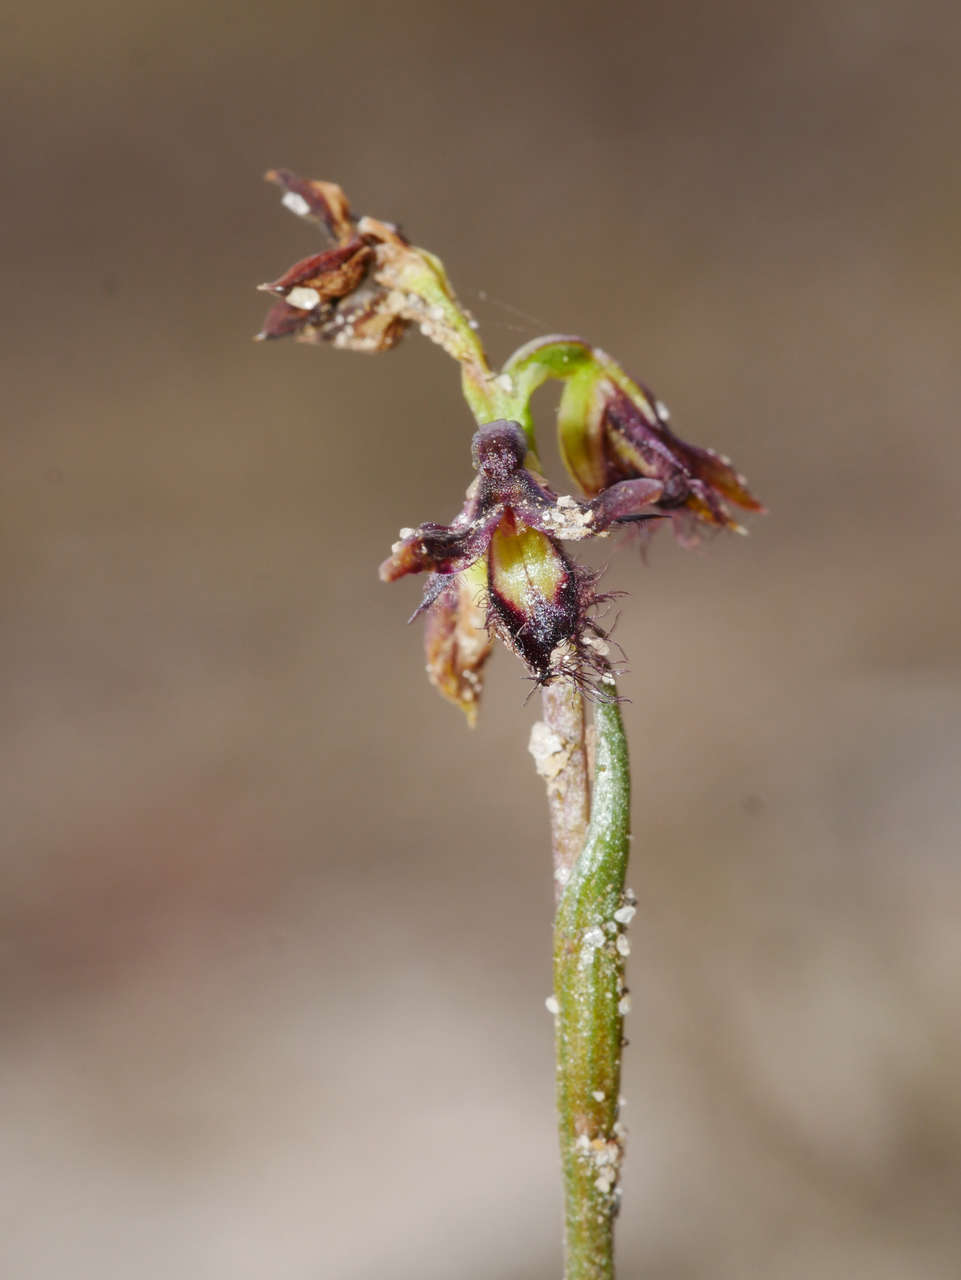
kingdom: Plantae
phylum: Tracheophyta
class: Liliopsida
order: Asparagales
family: Orchidaceae
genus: Genoplesium
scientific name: Genoplesium morrisii
